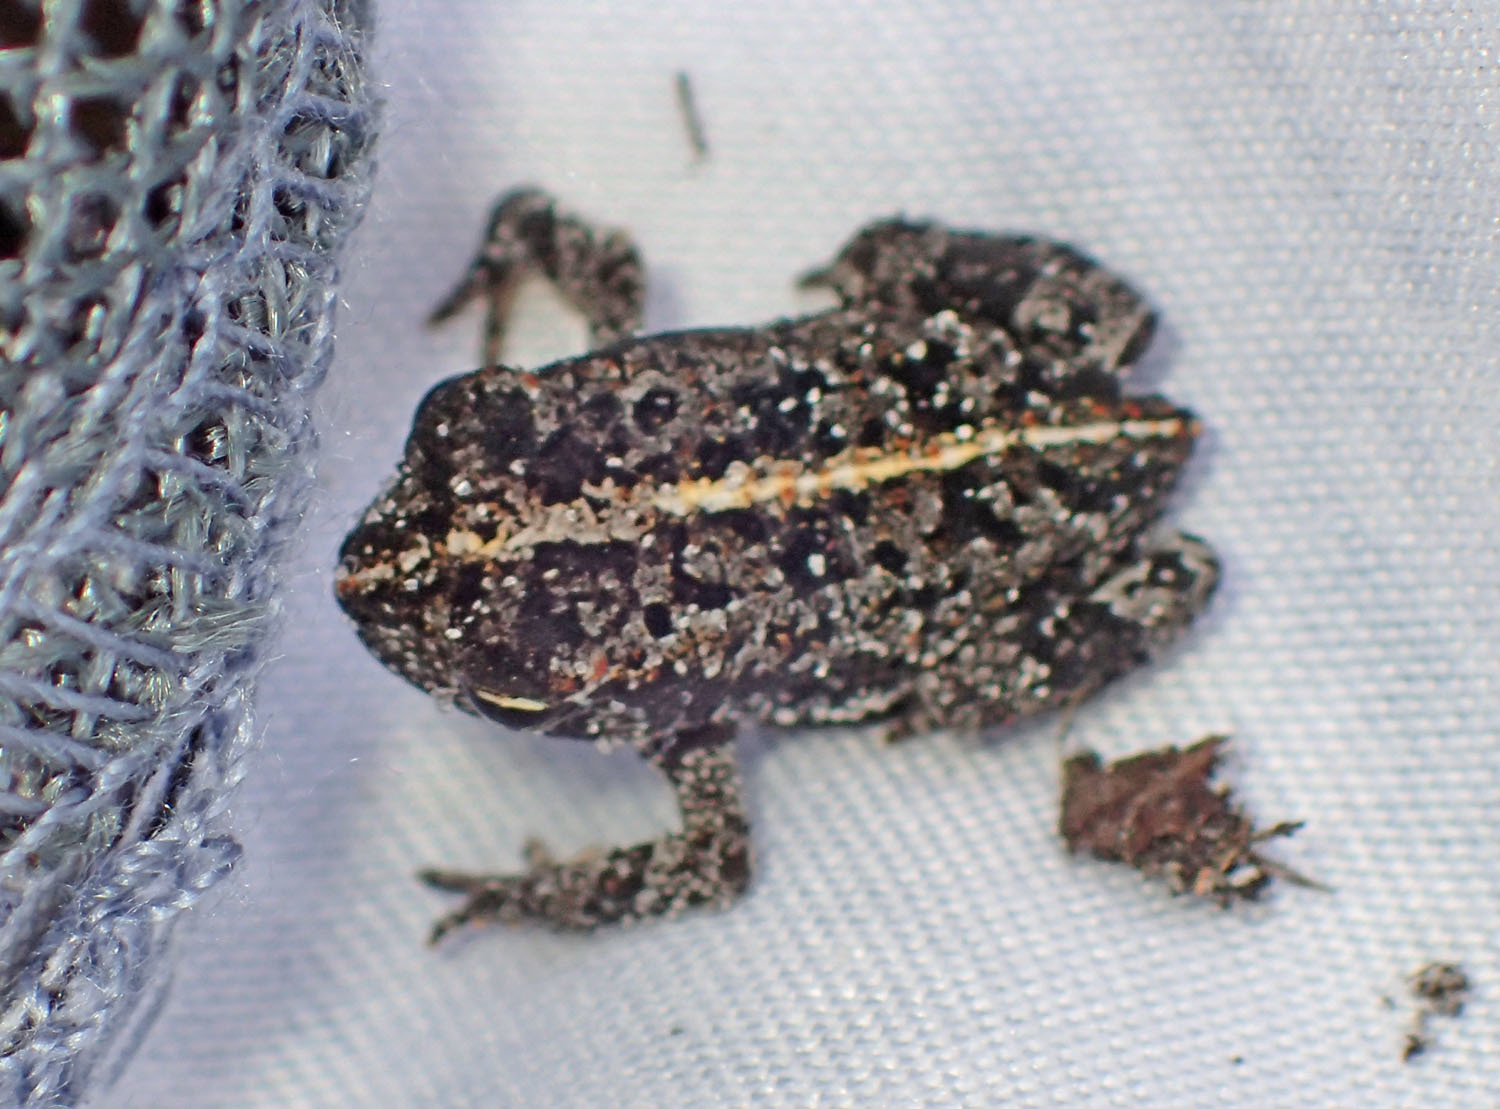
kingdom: Animalia
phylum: Chordata
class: Amphibia
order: Anura
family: Bufonidae
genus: Anaxyrus
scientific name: Anaxyrus quercicus
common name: Oak toad
